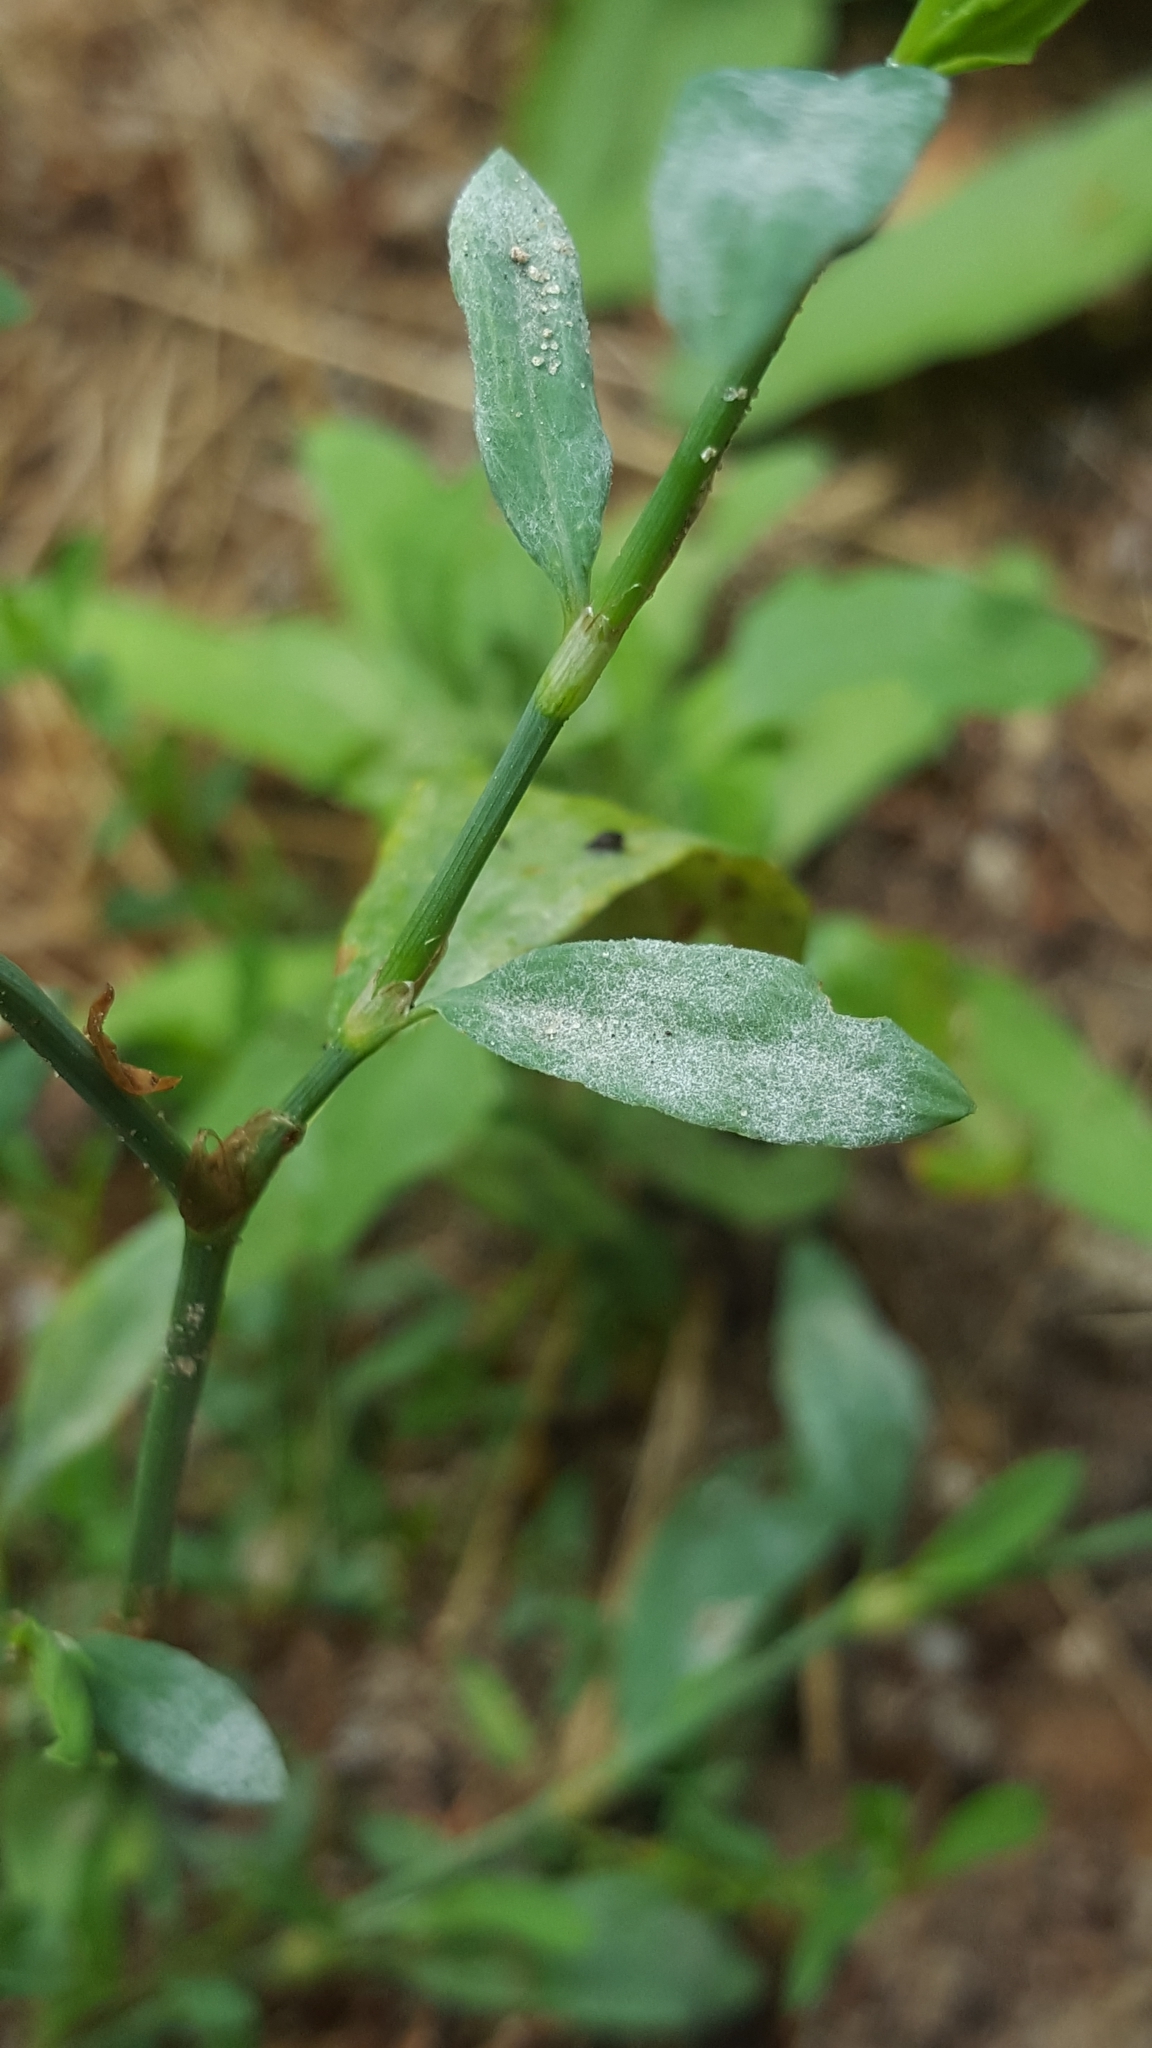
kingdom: Fungi
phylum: Ascomycota
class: Leotiomycetes
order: Helotiales
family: Erysiphaceae
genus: Erysiphe
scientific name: Erysiphe polygoni
